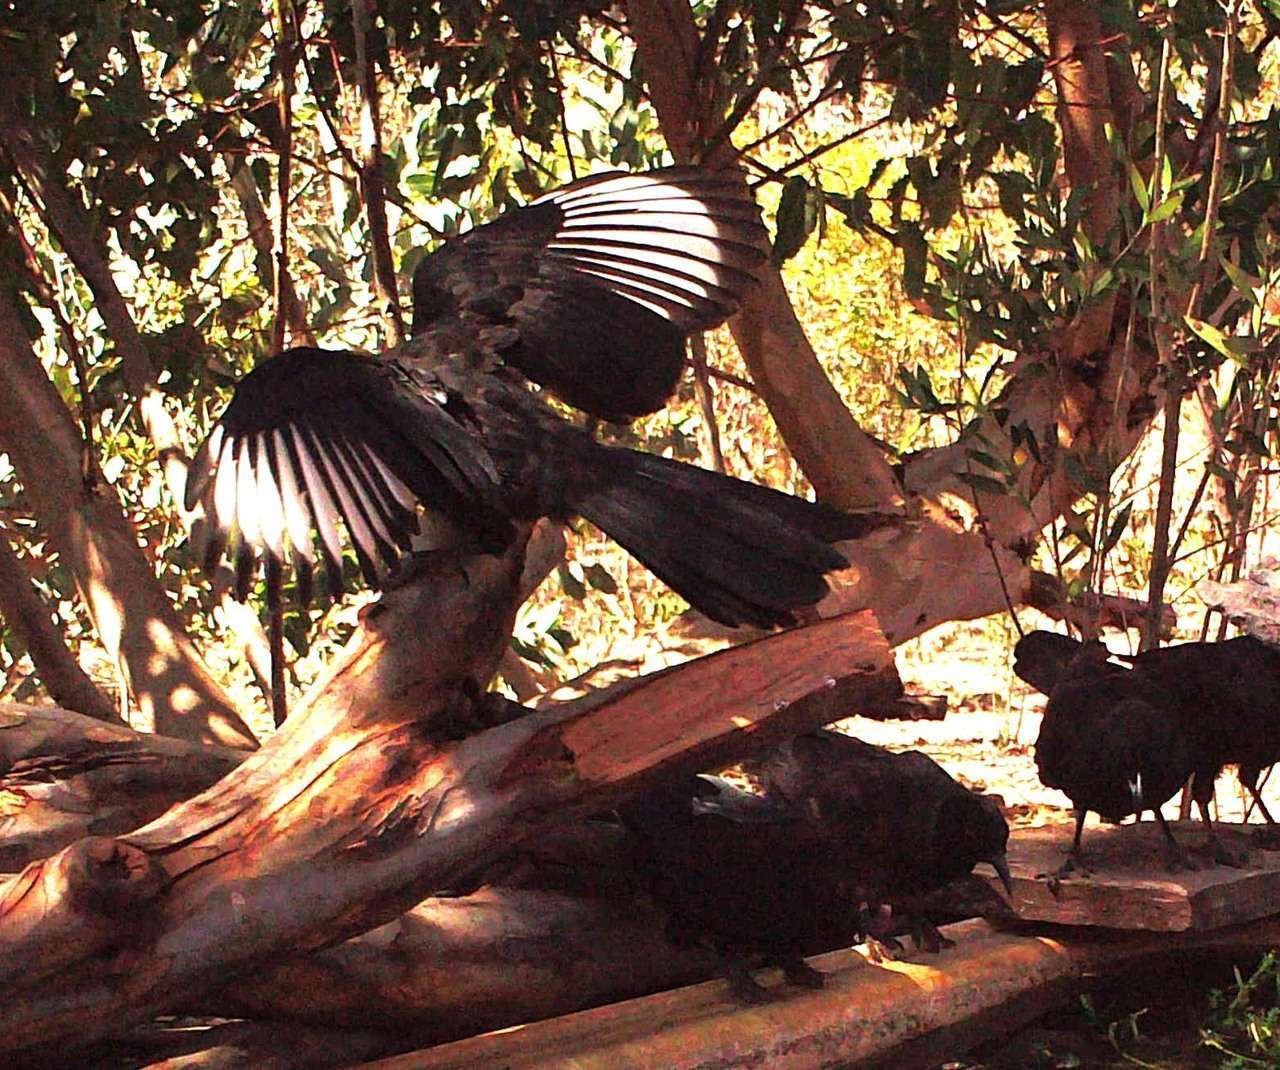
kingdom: Animalia
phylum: Chordata
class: Aves
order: Passeriformes
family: Corcoracidae
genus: Corcorax
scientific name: Corcorax melanoramphos
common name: White-winged chough
